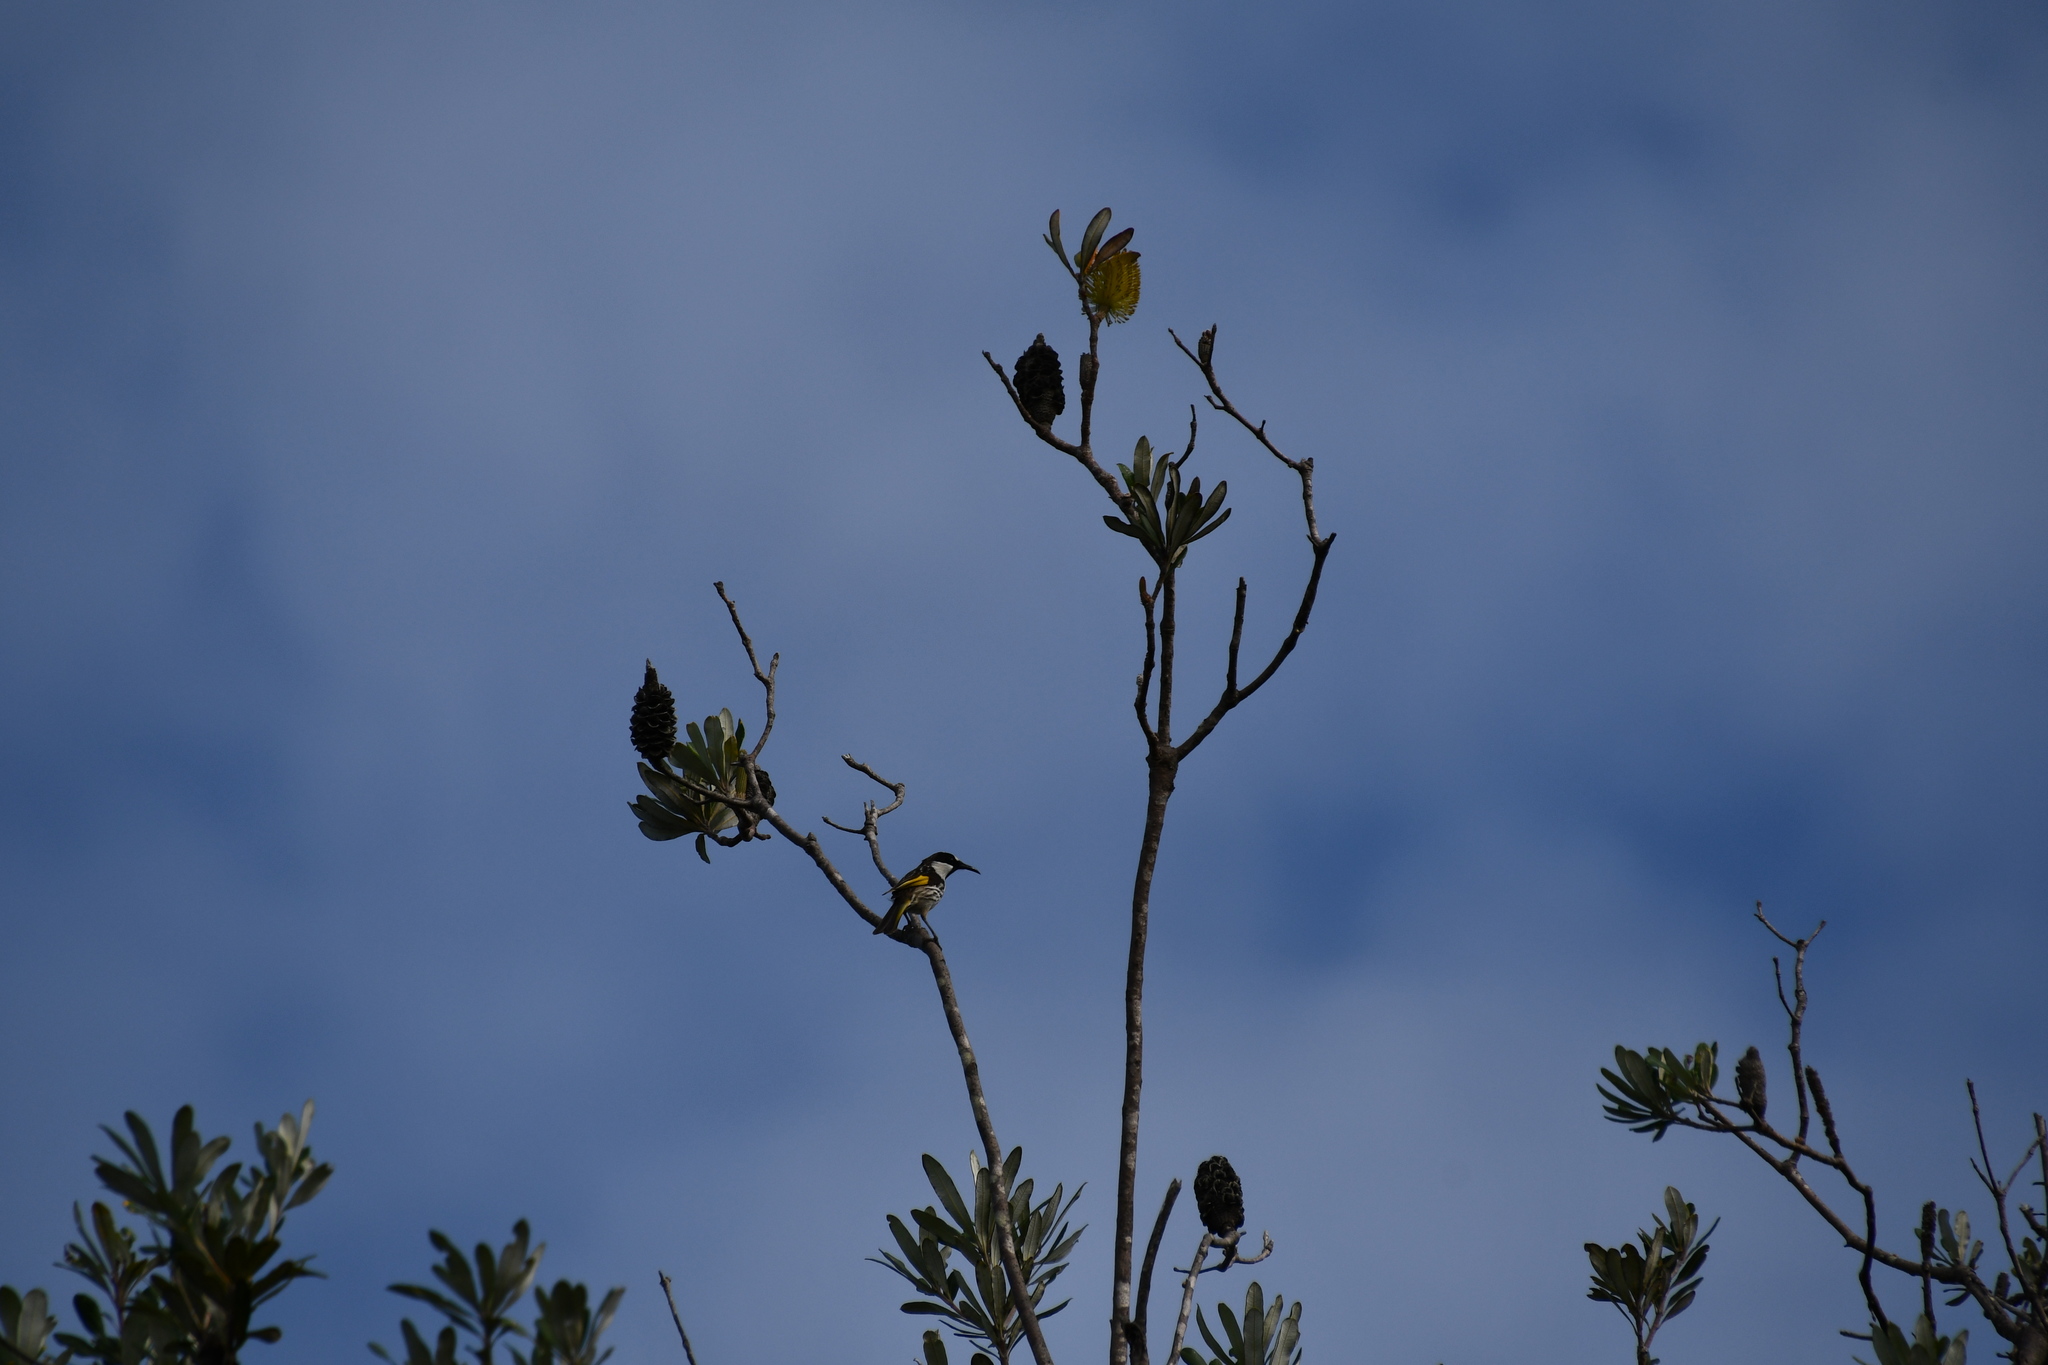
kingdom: Animalia
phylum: Chordata
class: Aves
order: Passeriformes
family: Meliphagidae
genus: Phylidonyris
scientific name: Phylidonyris niger
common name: White-cheeked honeyeater
